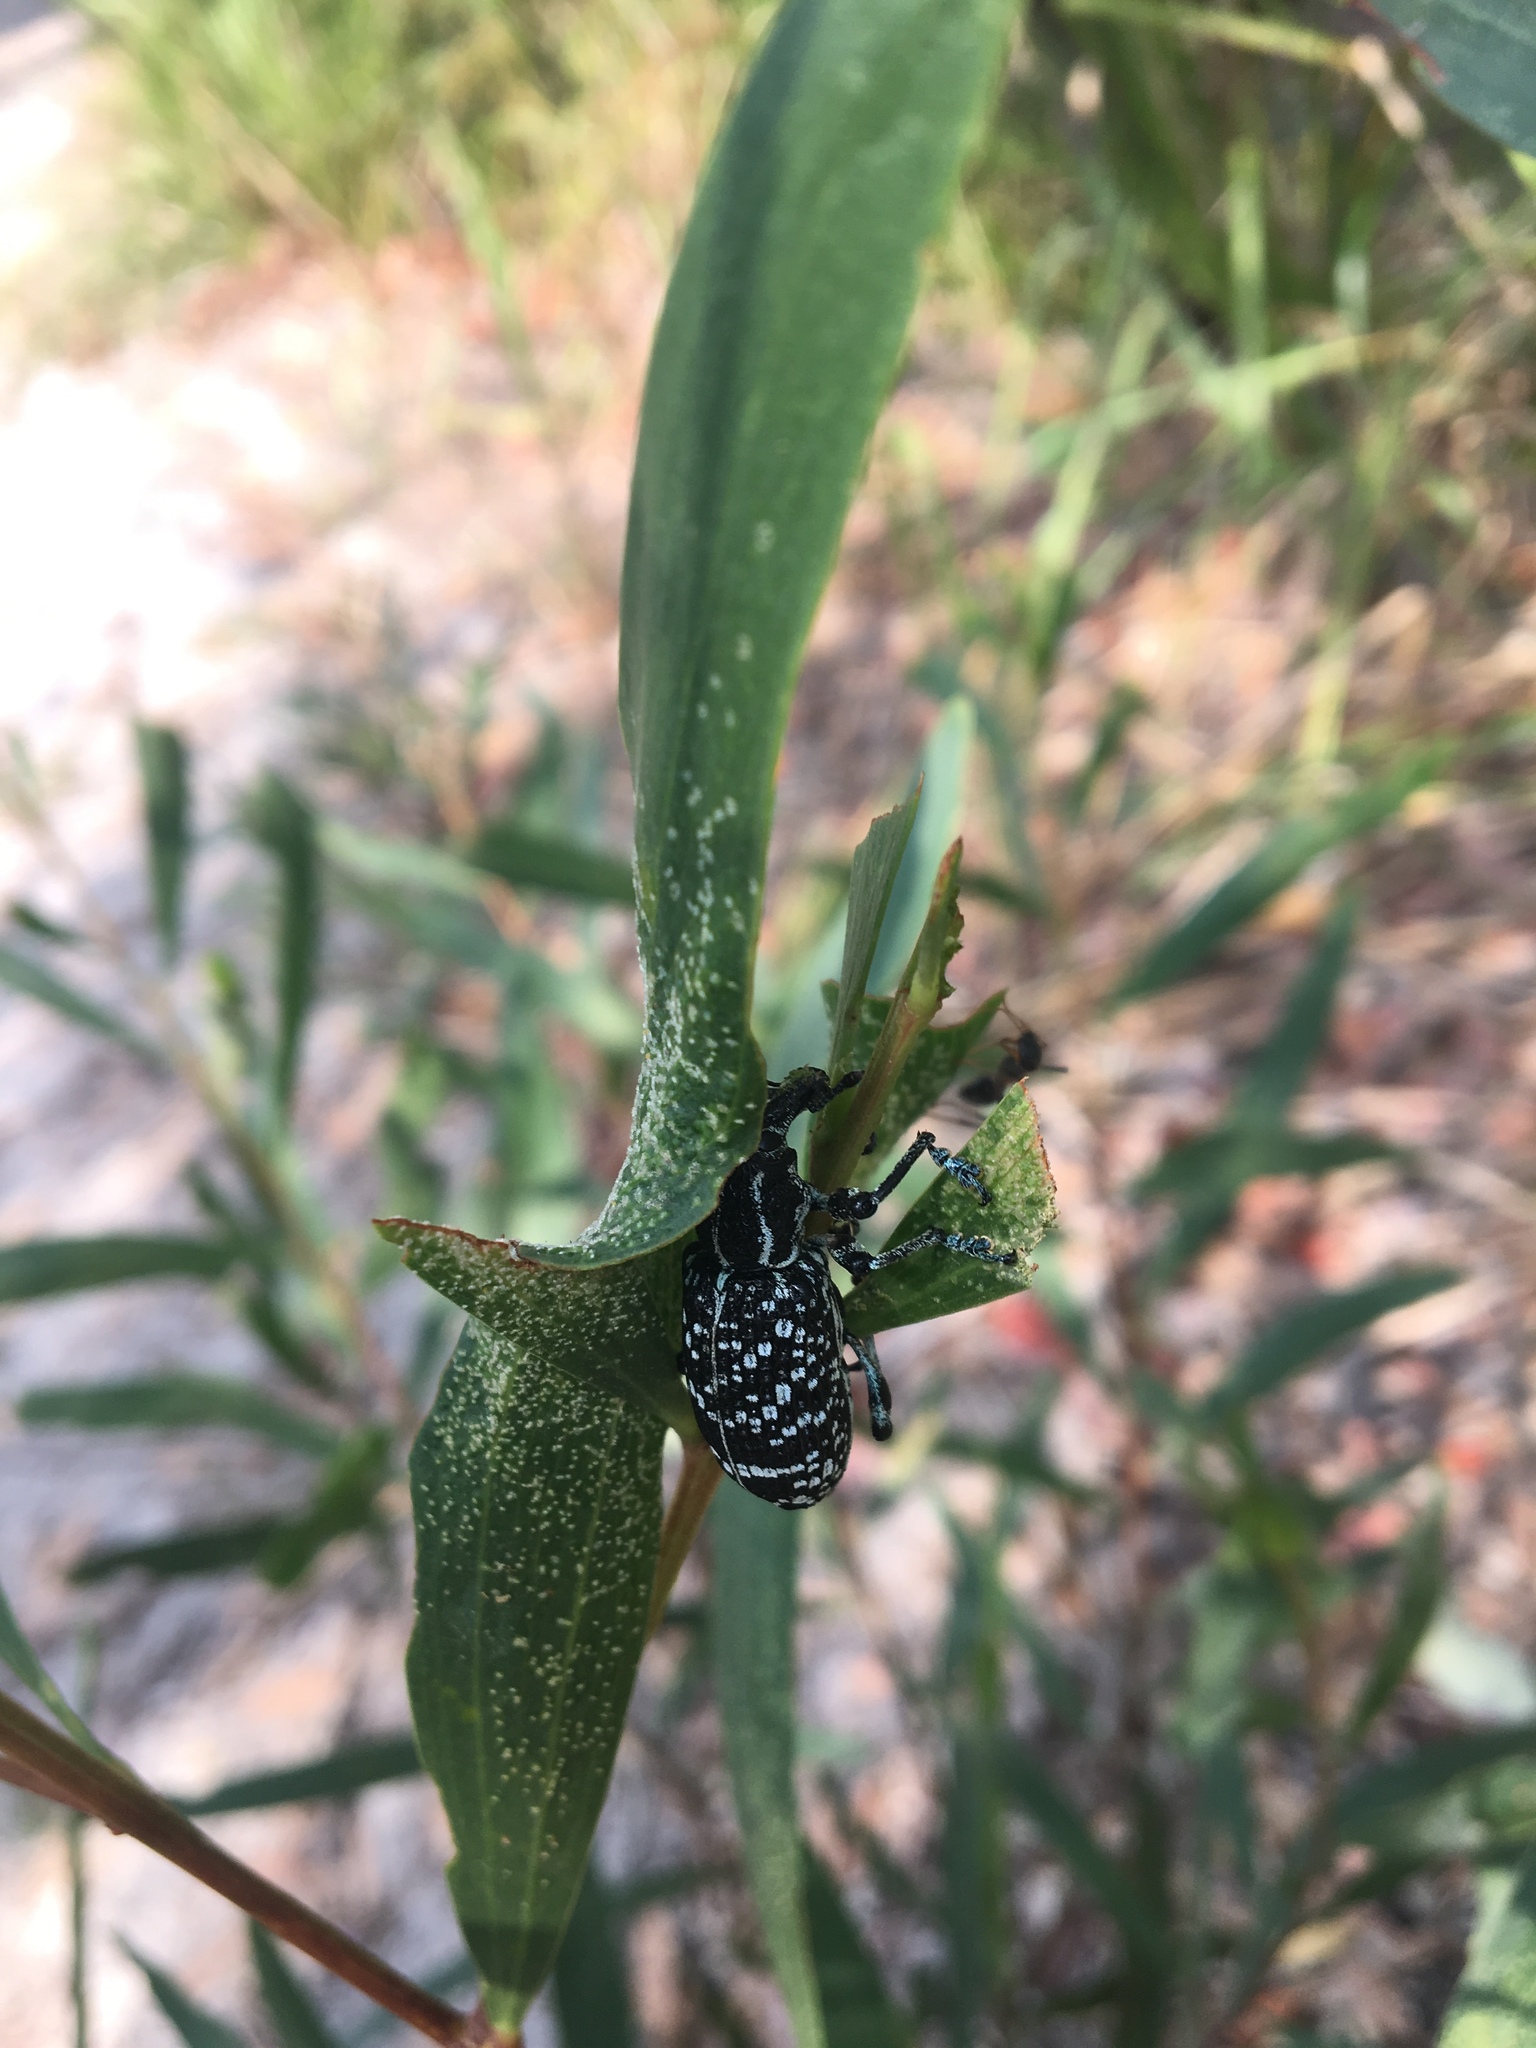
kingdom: Animalia
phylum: Arthropoda
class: Insecta
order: Coleoptera
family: Curculionidae
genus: Chrysolopus
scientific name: Chrysolopus spectabilis
